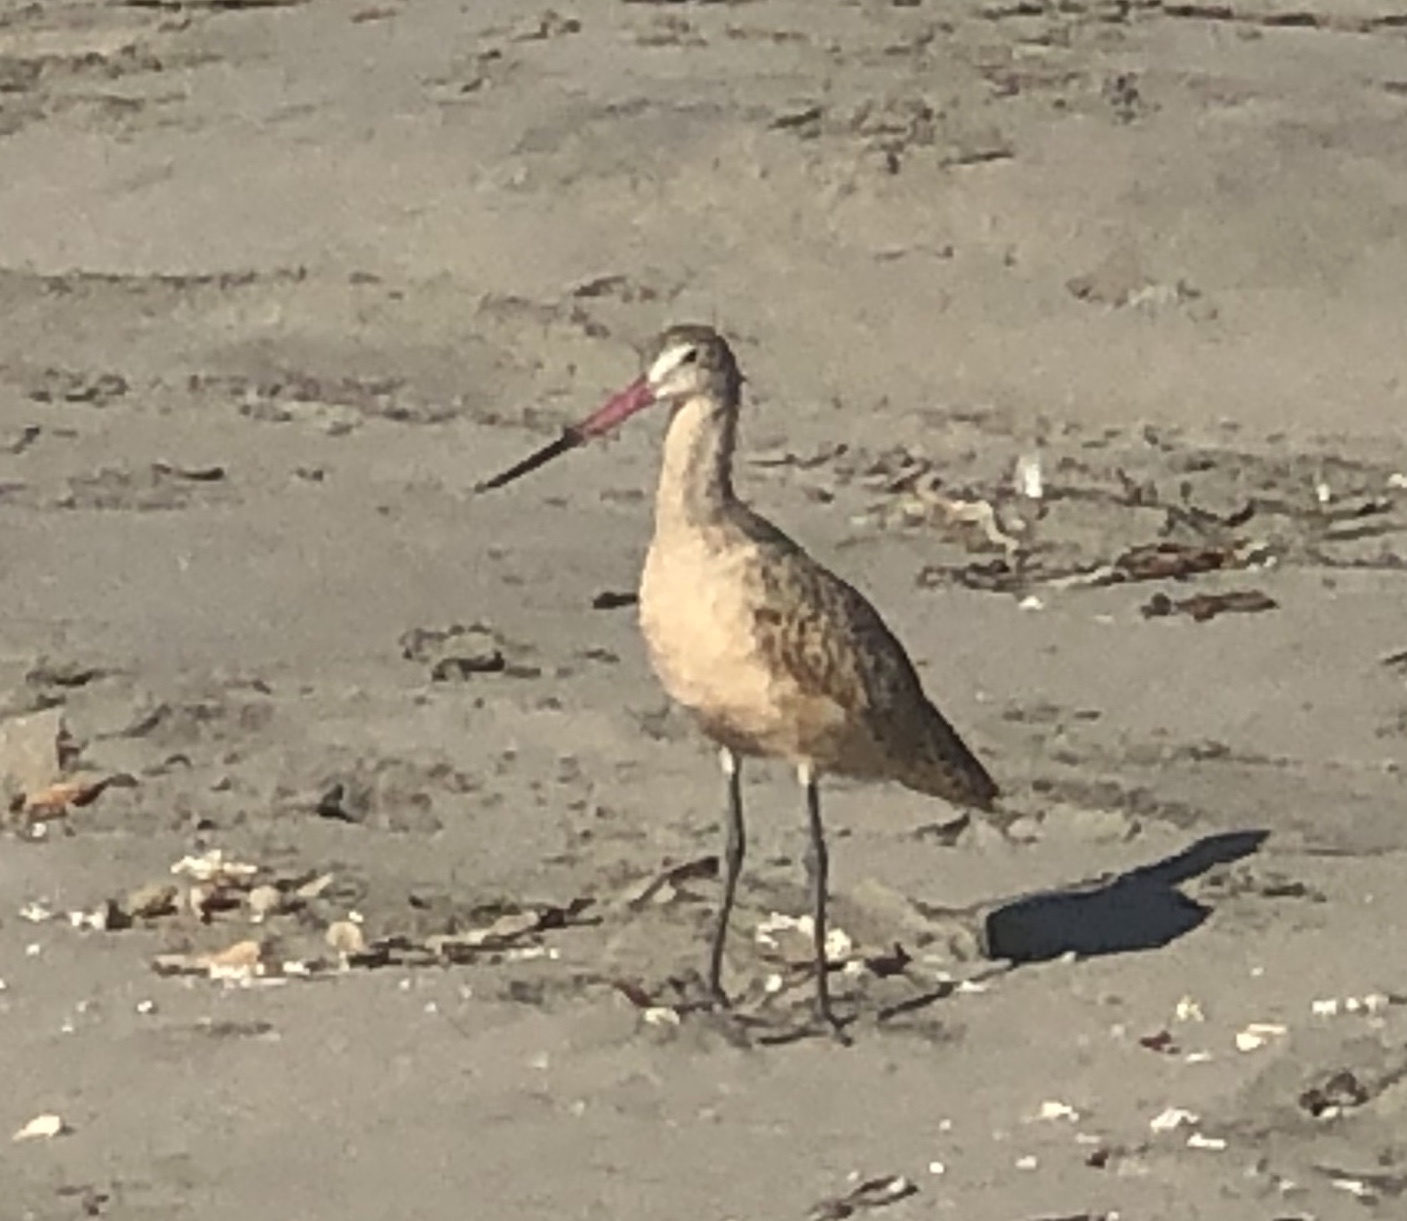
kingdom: Animalia
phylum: Chordata
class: Aves
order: Charadriiformes
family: Scolopacidae
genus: Limosa
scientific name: Limosa fedoa
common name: Marbled godwit
